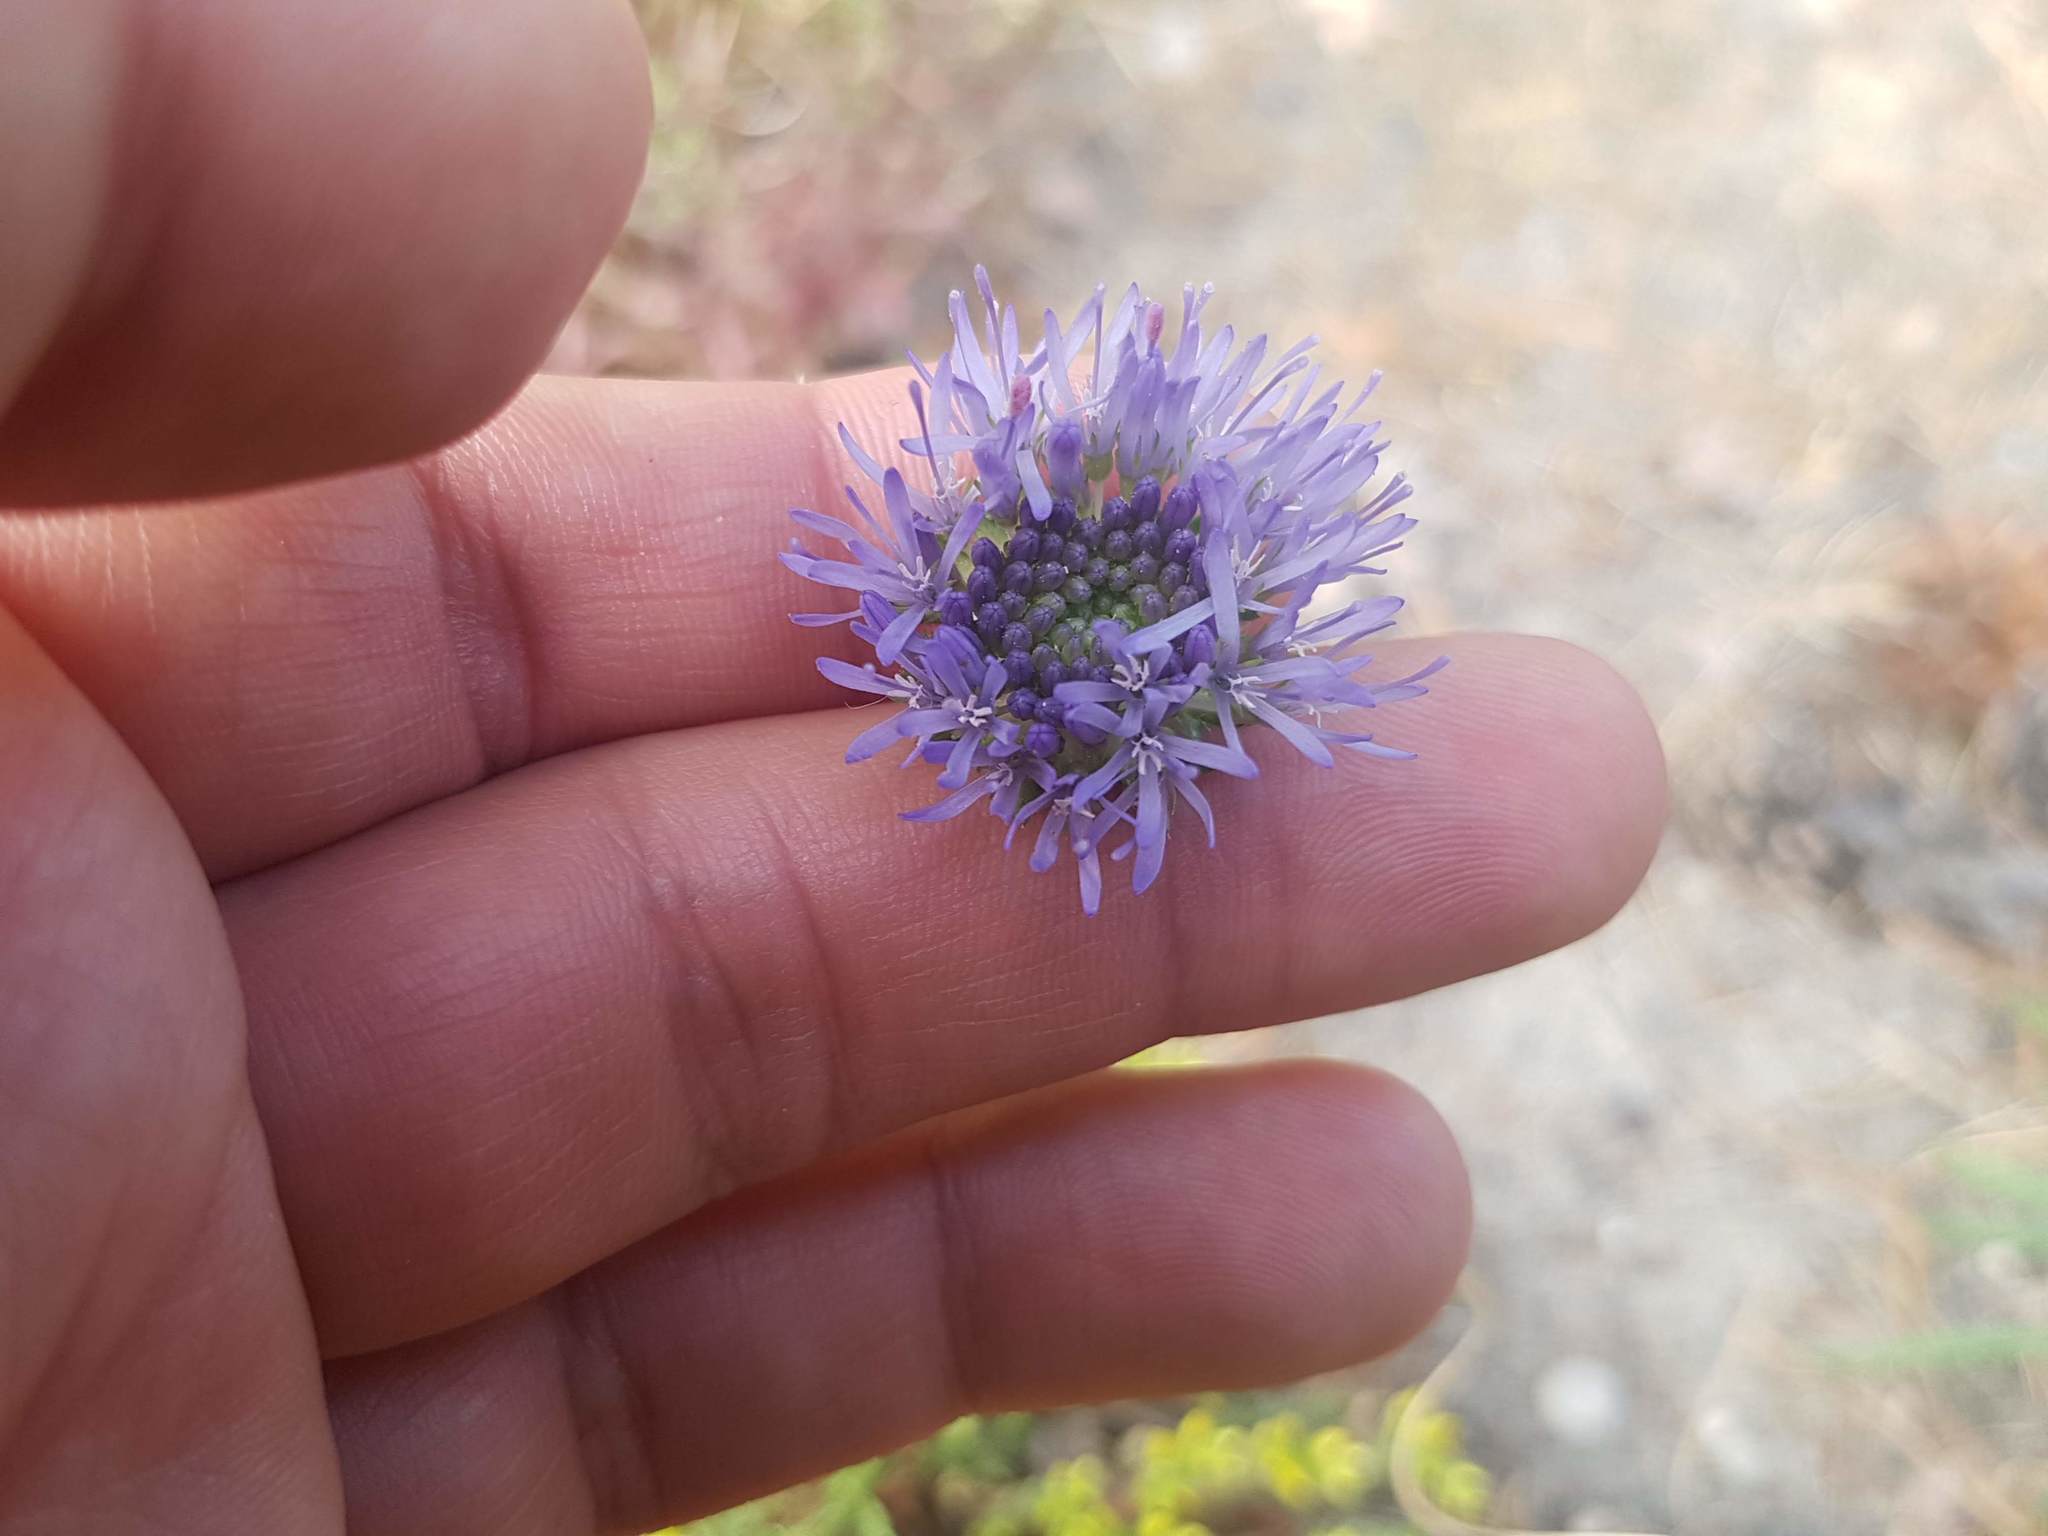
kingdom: Plantae
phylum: Tracheophyta
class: Magnoliopsida
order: Asterales
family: Campanulaceae
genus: Jasione
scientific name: Jasione montana
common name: Sheep's-bit
